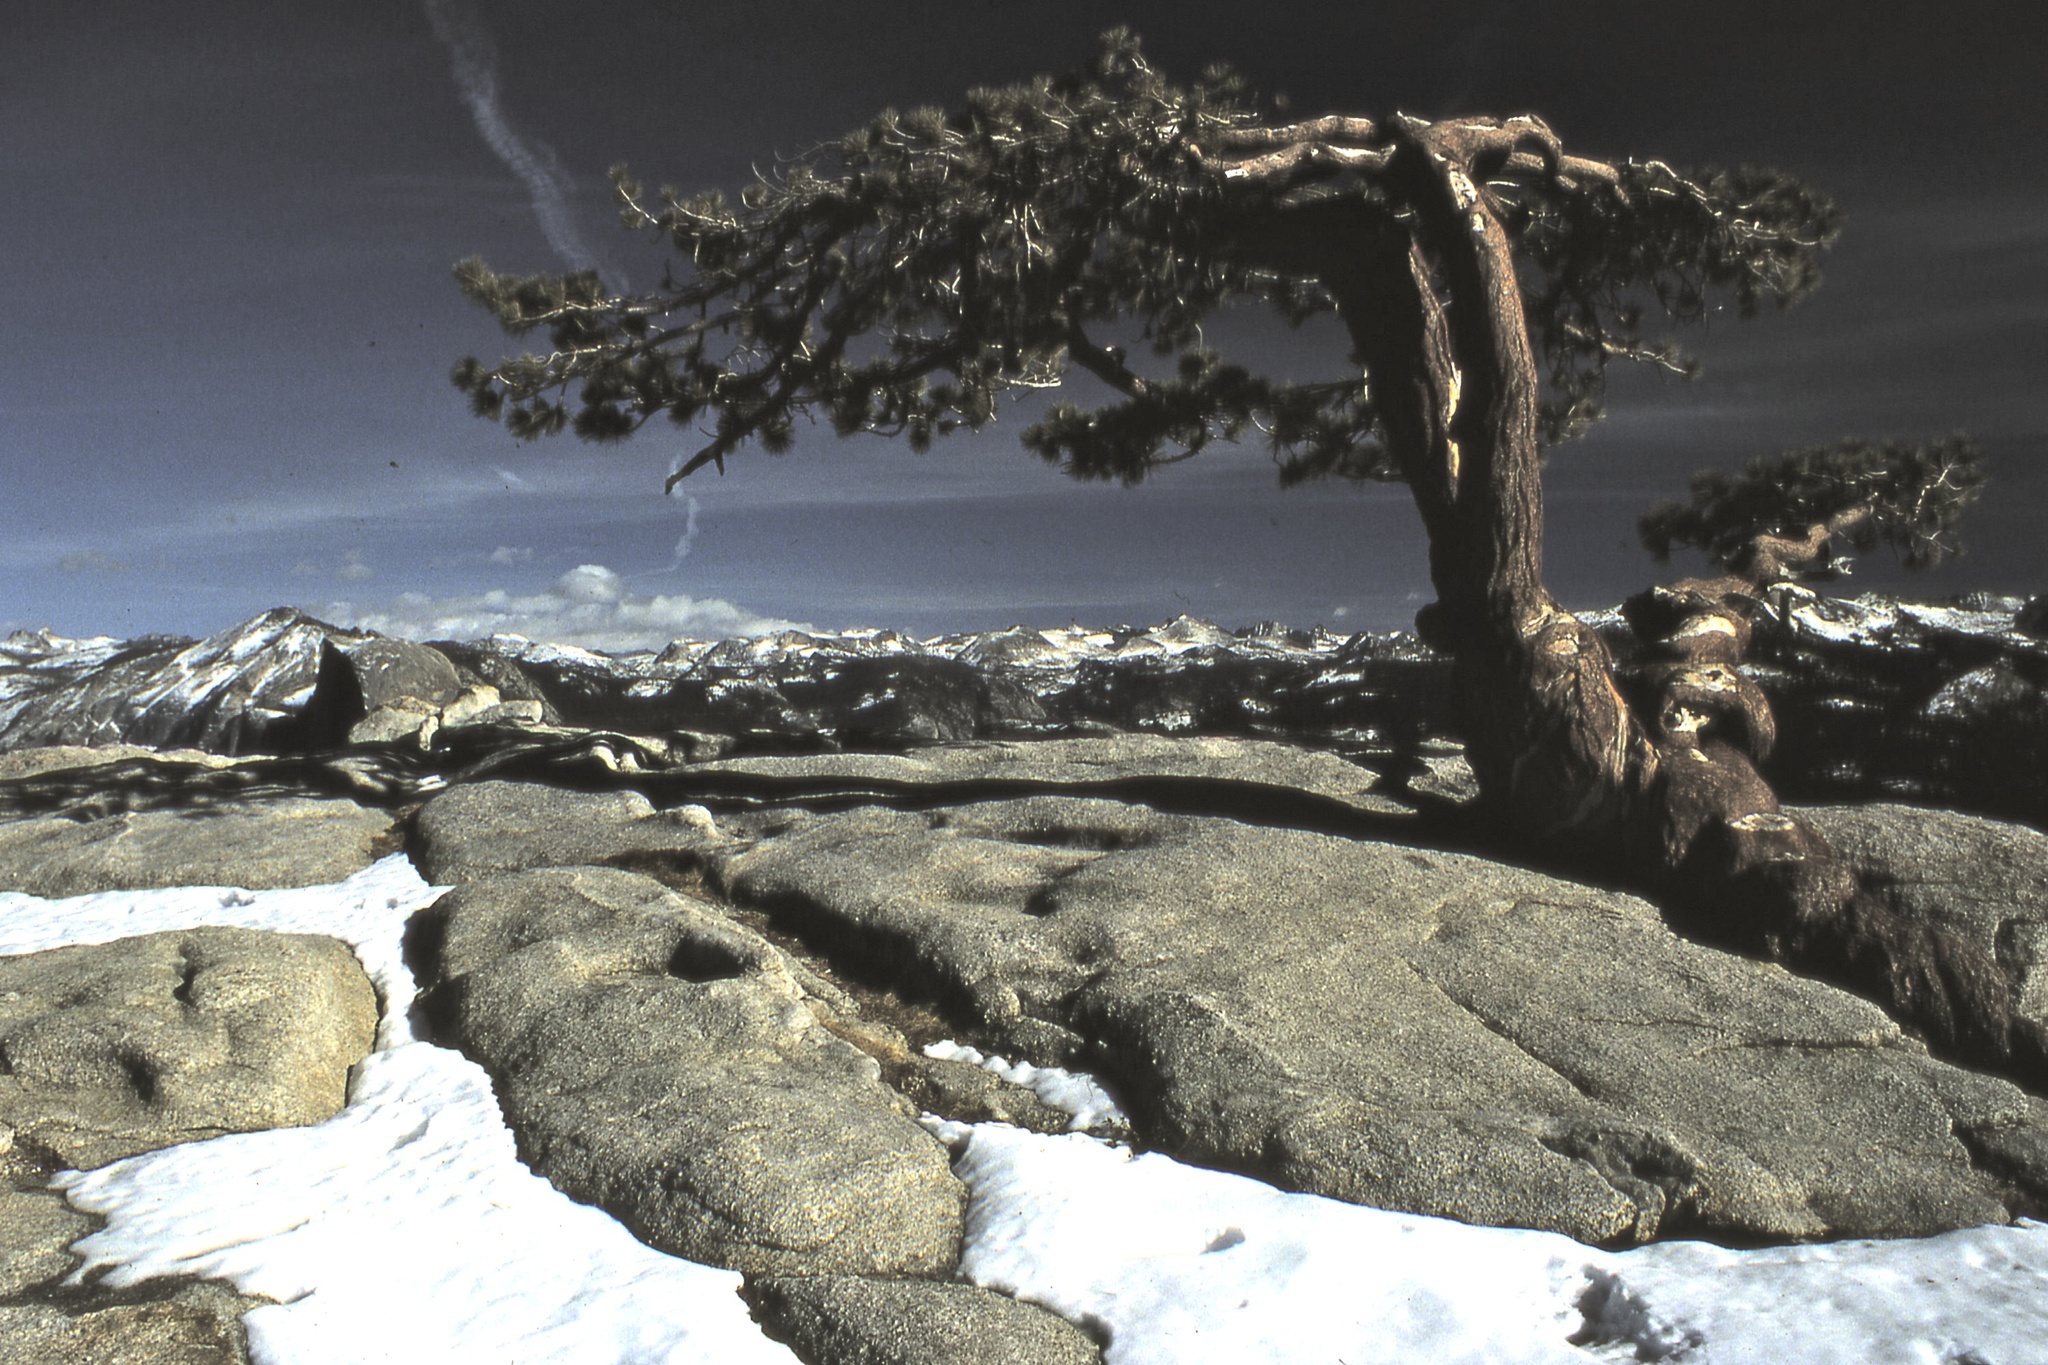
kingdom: Plantae
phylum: Tracheophyta
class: Pinopsida
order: Pinales
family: Pinaceae
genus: Pinus
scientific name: Pinus jeffreyi
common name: Jeffrey pine
